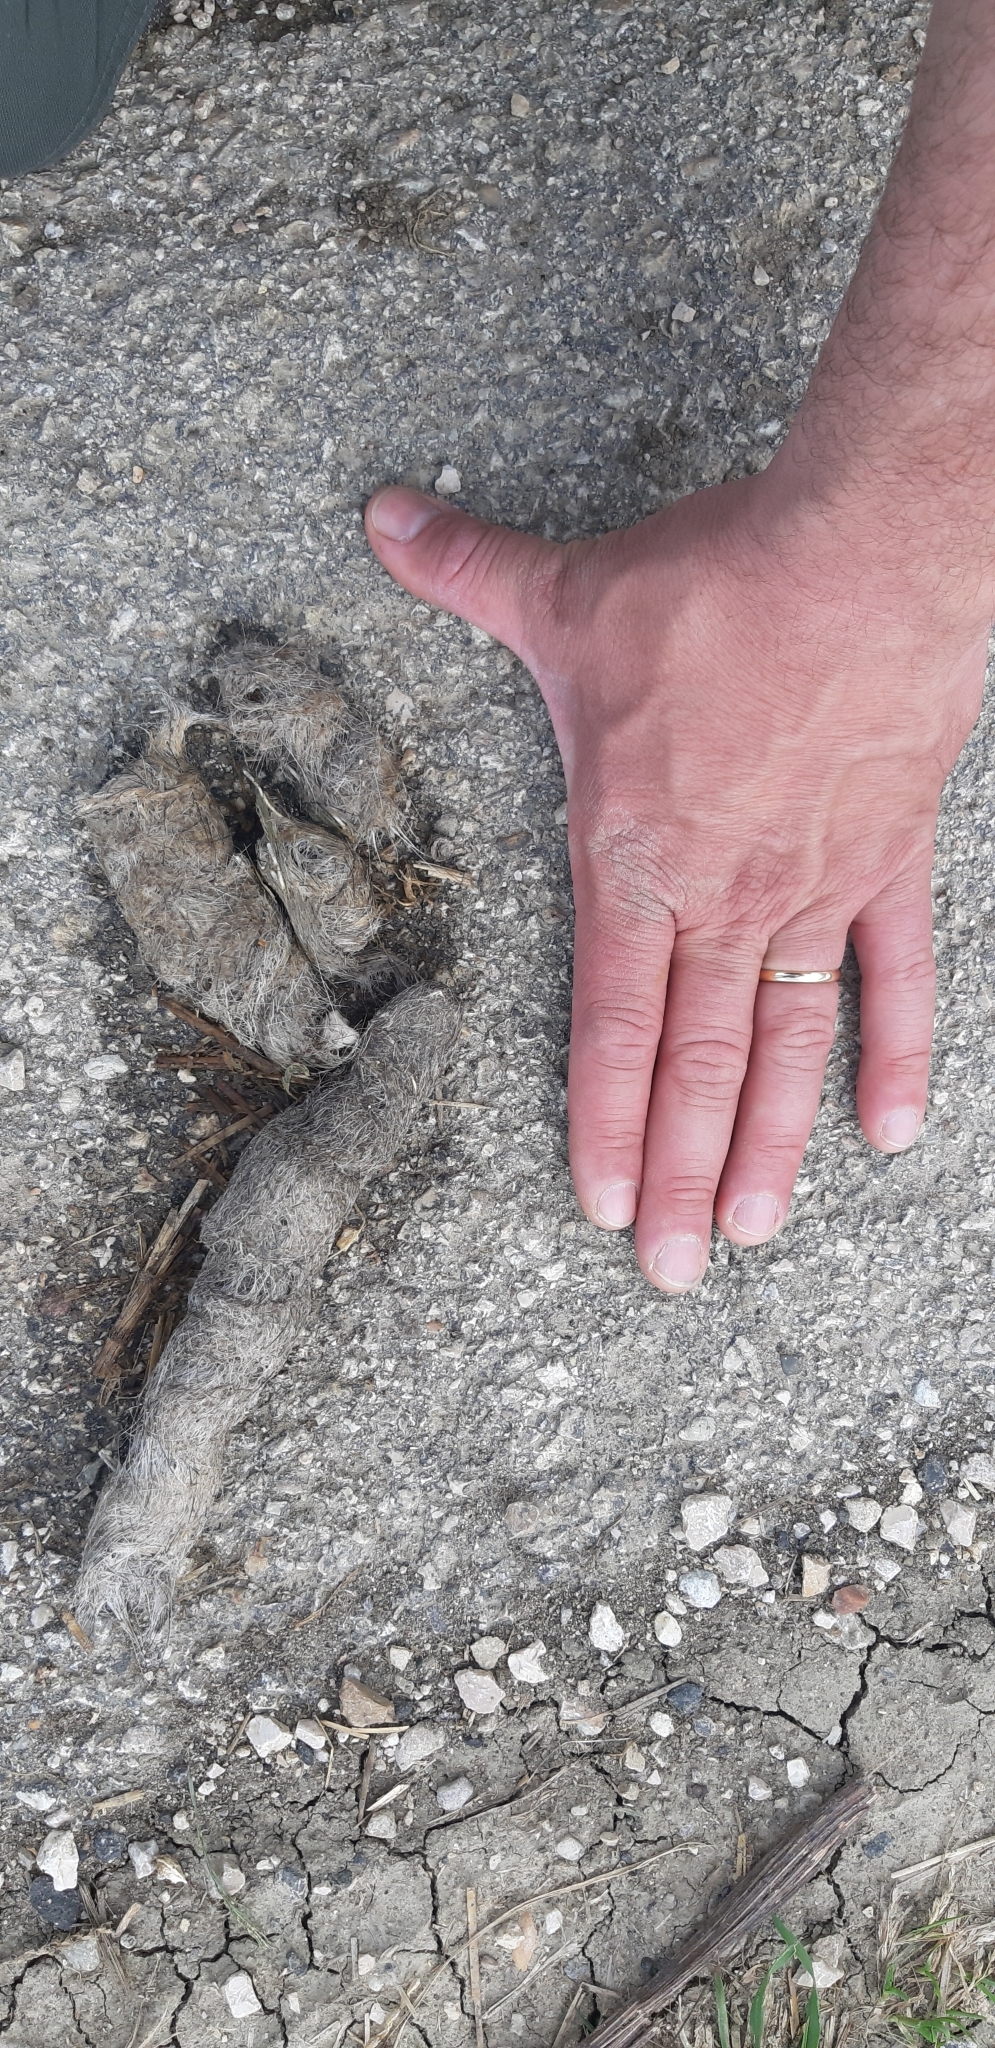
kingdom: Animalia
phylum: Chordata
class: Mammalia
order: Carnivora
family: Canidae
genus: Canis
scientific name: Canis lupus
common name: Gray wolf
